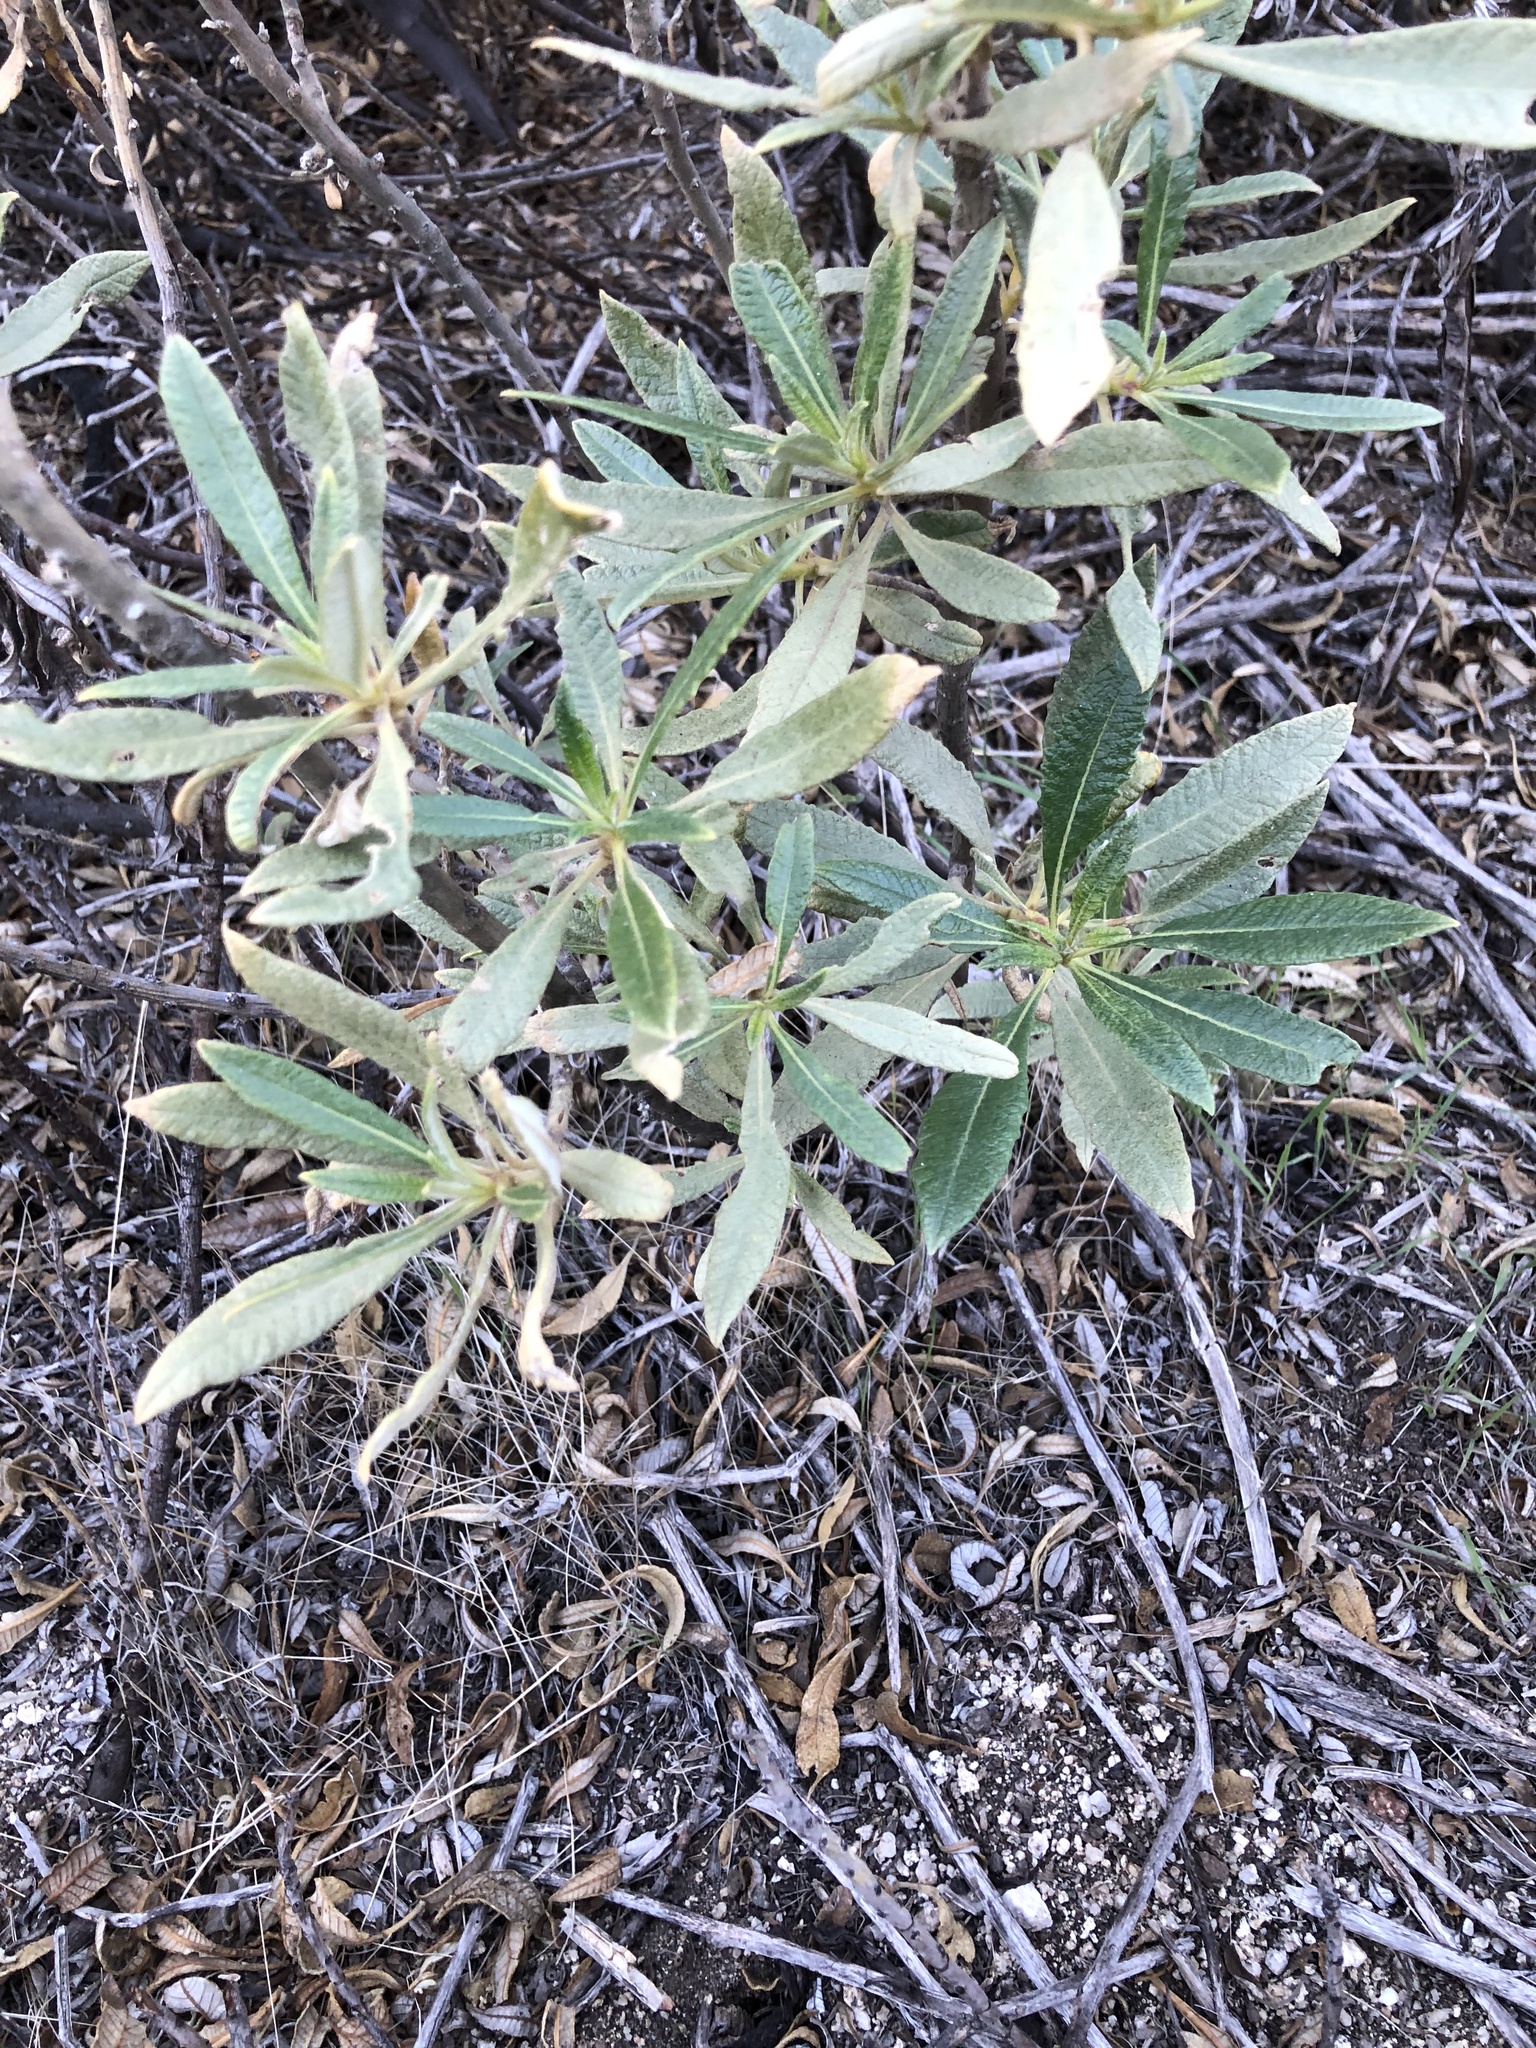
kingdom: Plantae
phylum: Tracheophyta
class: Magnoliopsida
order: Boraginales
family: Namaceae
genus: Eriodictyon
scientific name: Eriodictyon trichocalyx
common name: Hairy yerba-santa
